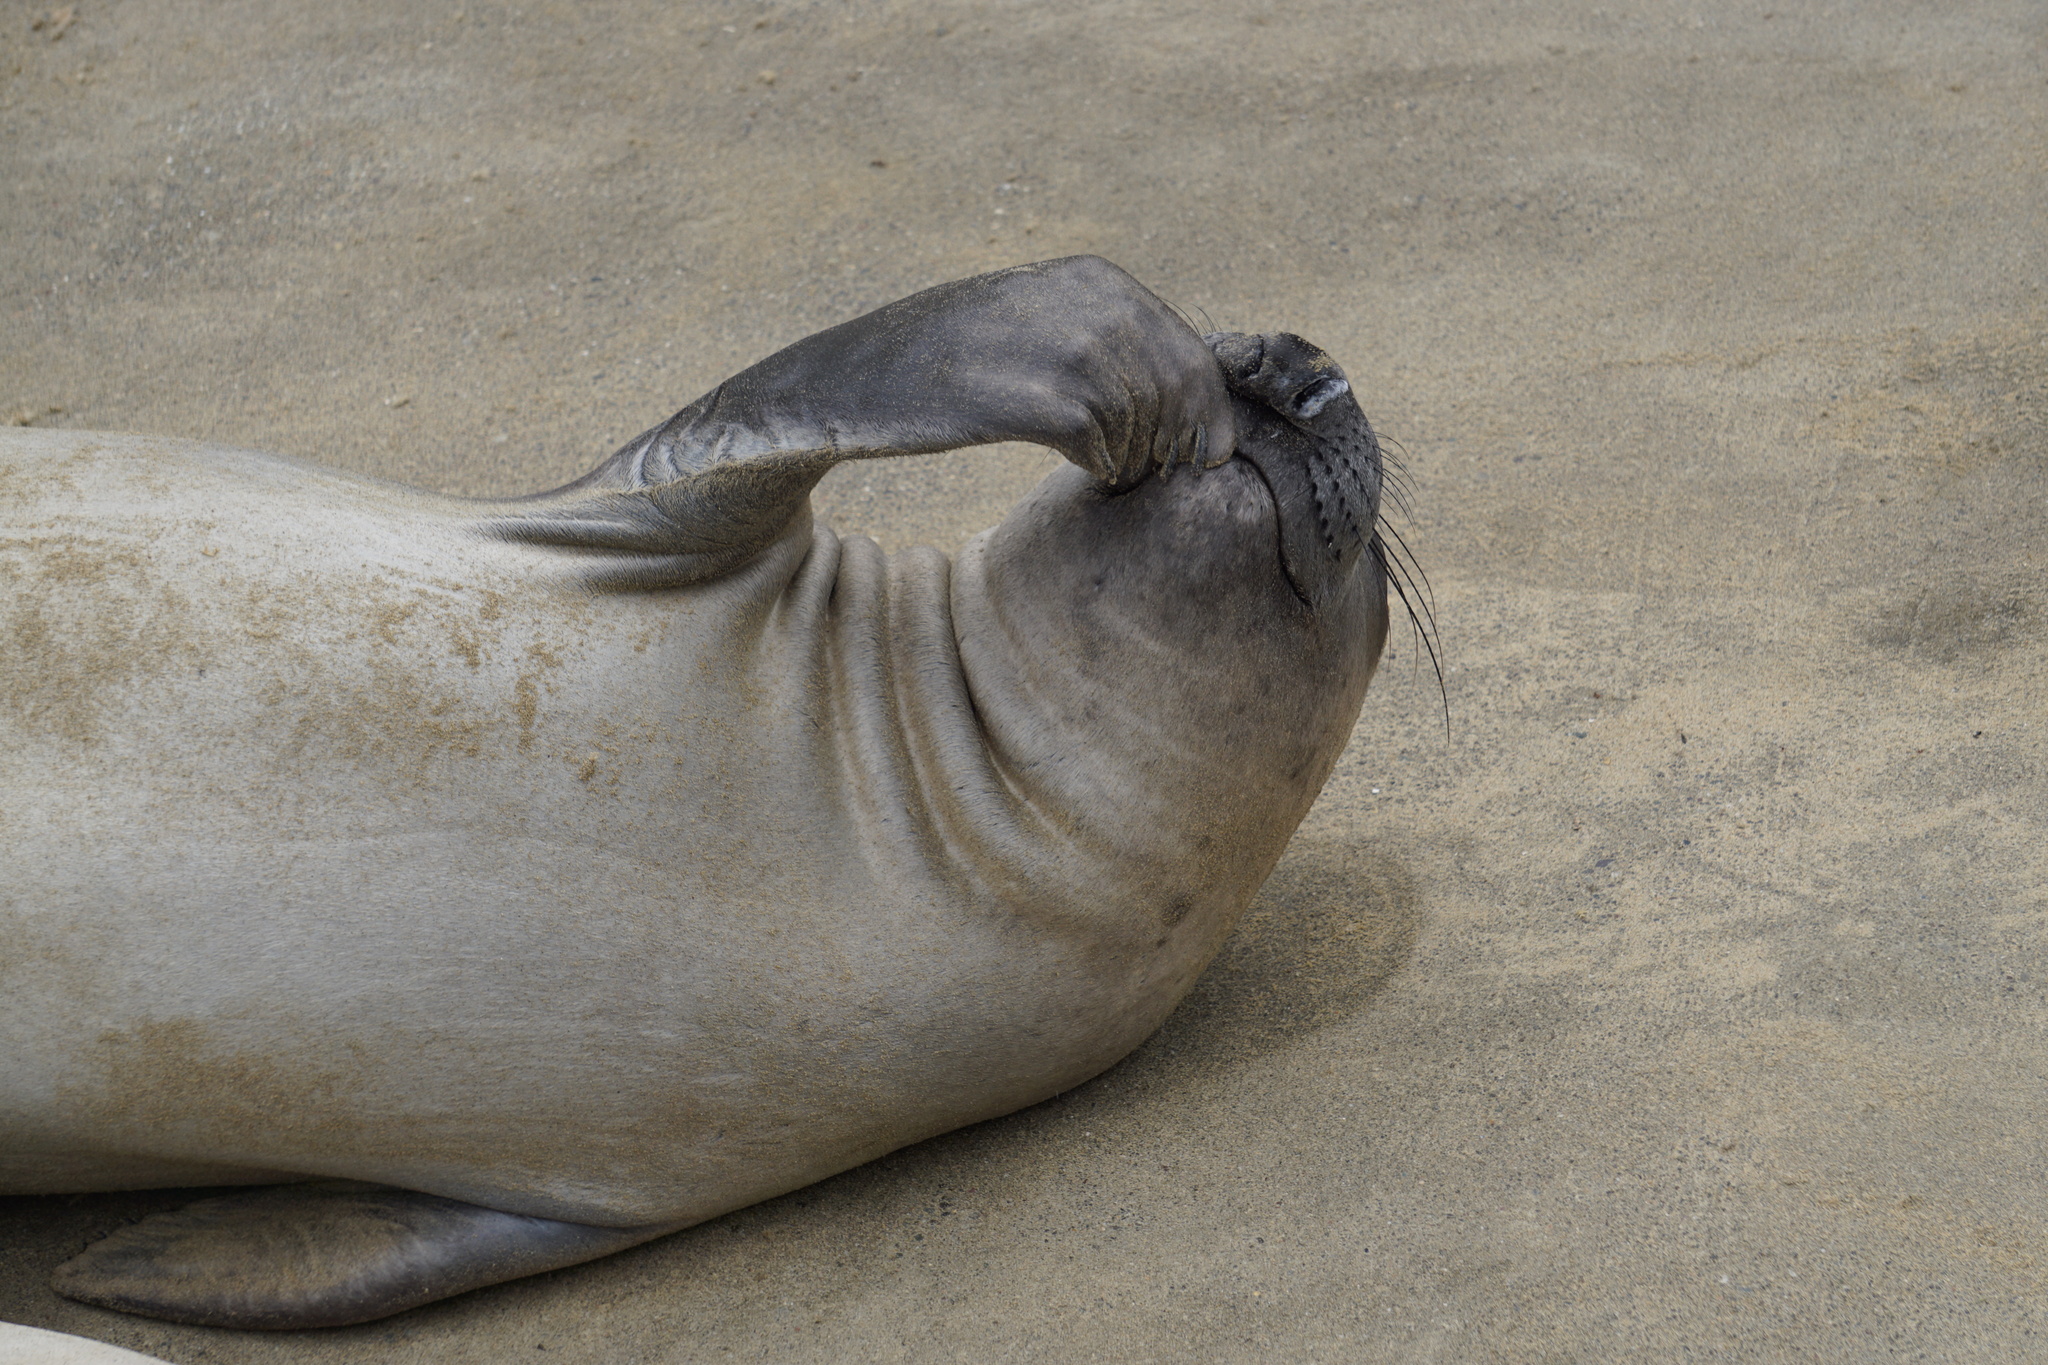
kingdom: Animalia
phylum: Chordata
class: Mammalia
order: Carnivora
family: Phocidae
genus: Mirounga
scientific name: Mirounga angustirostris
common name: Northern elephant seal
